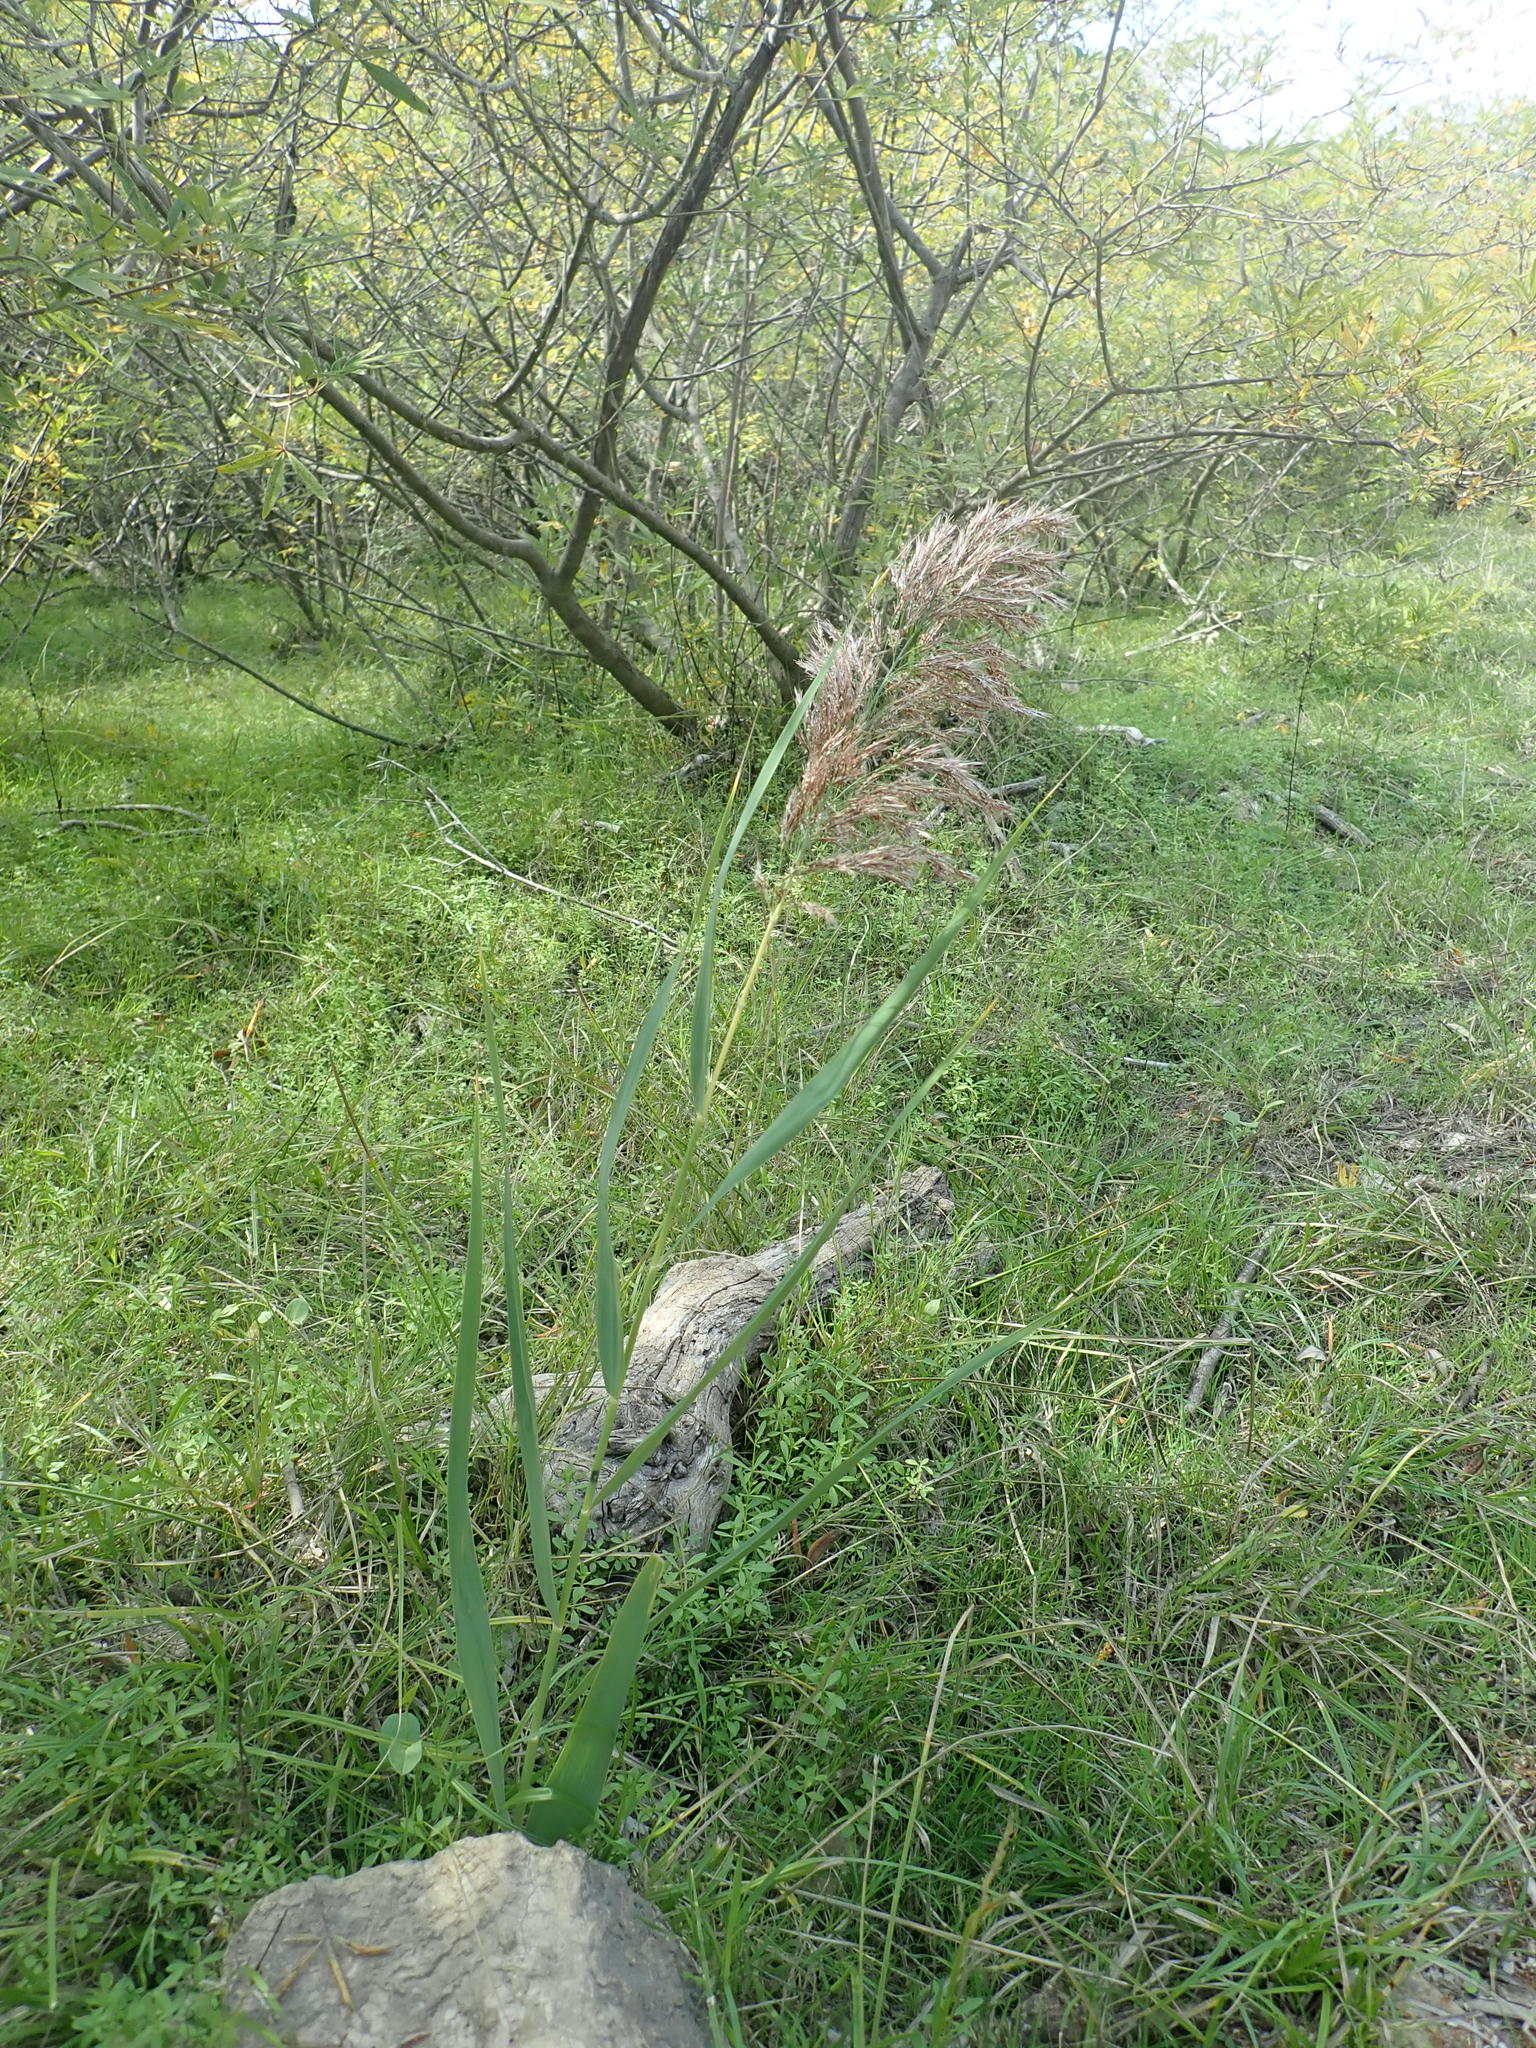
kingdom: Plantae
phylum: Tracheophyta
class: Liliopsida
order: Poales
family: Poaceae
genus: Phragmites
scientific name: Phragmites australis
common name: Common reed
